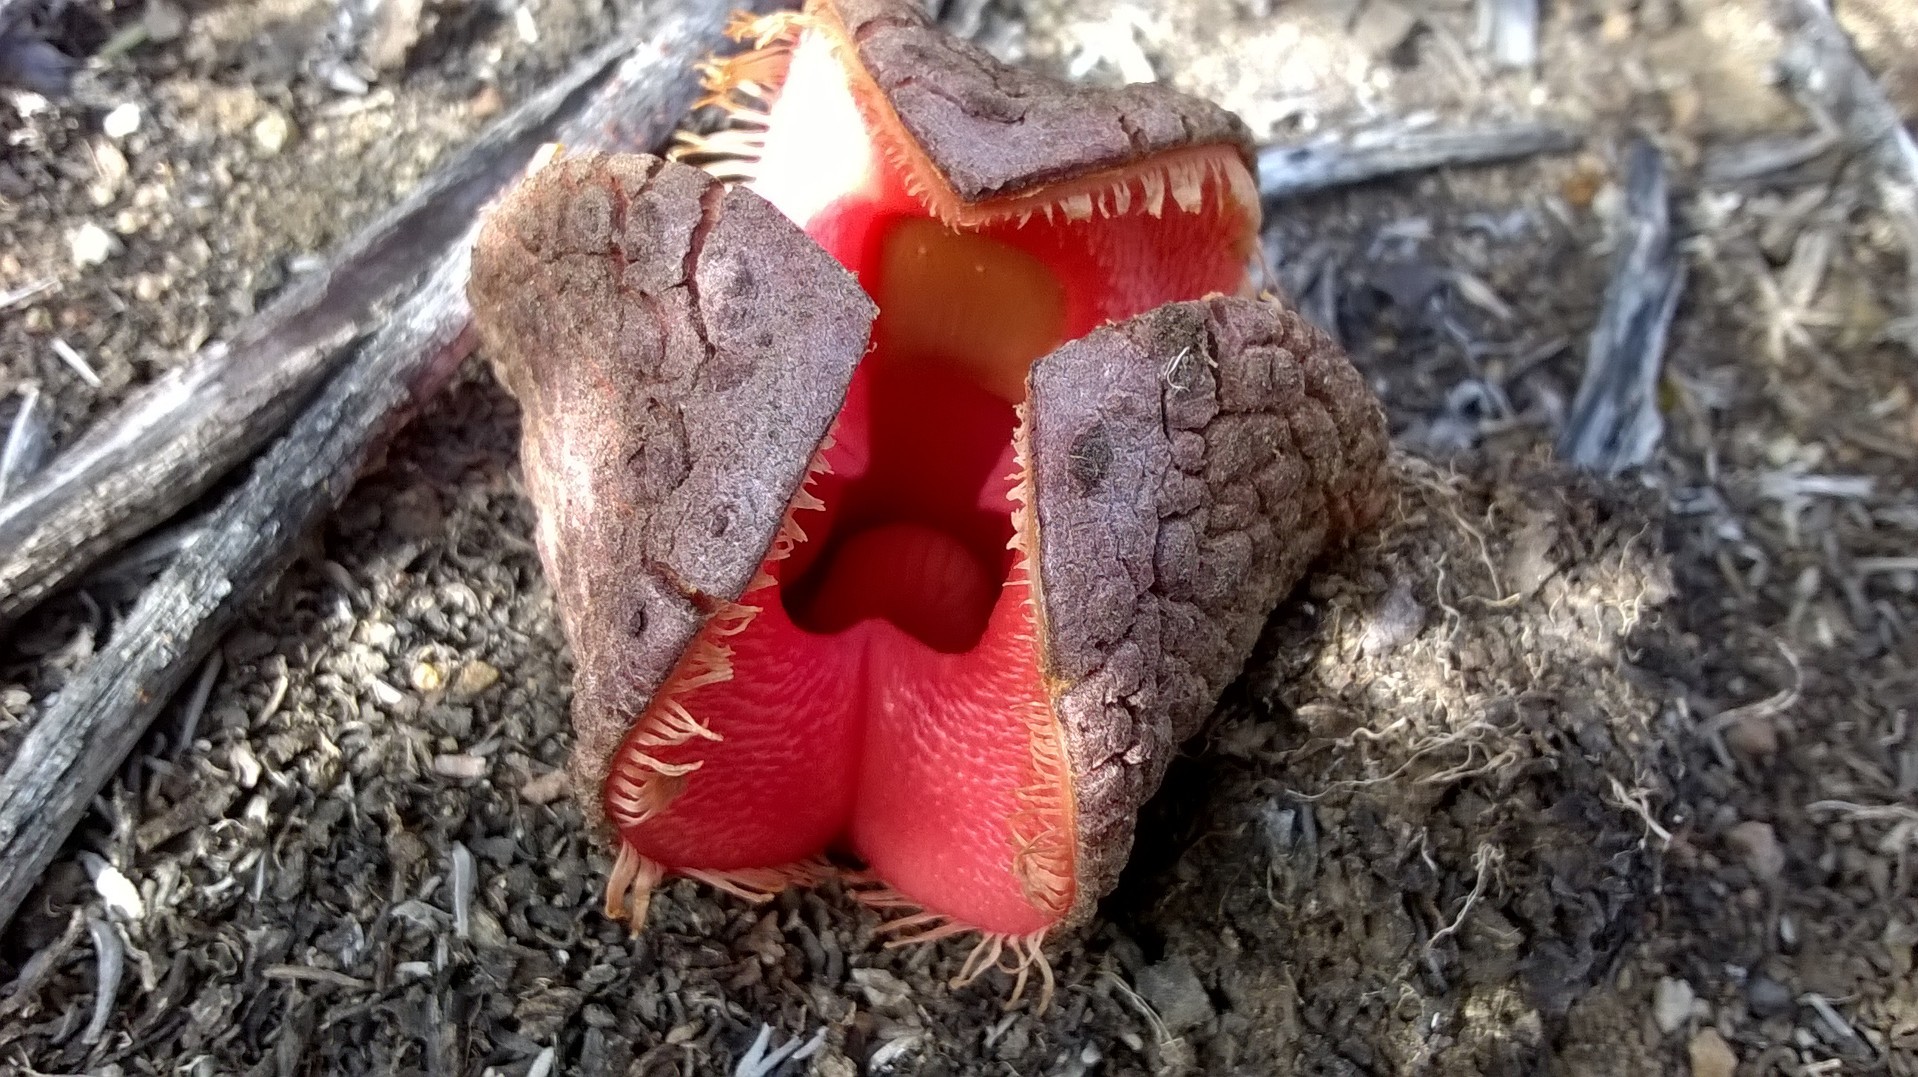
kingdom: Plantae
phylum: Tracheophyta
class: Magnoliopsida
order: Piperales
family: Hydnoraceae
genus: Hydnora
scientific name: Hydnora africana
